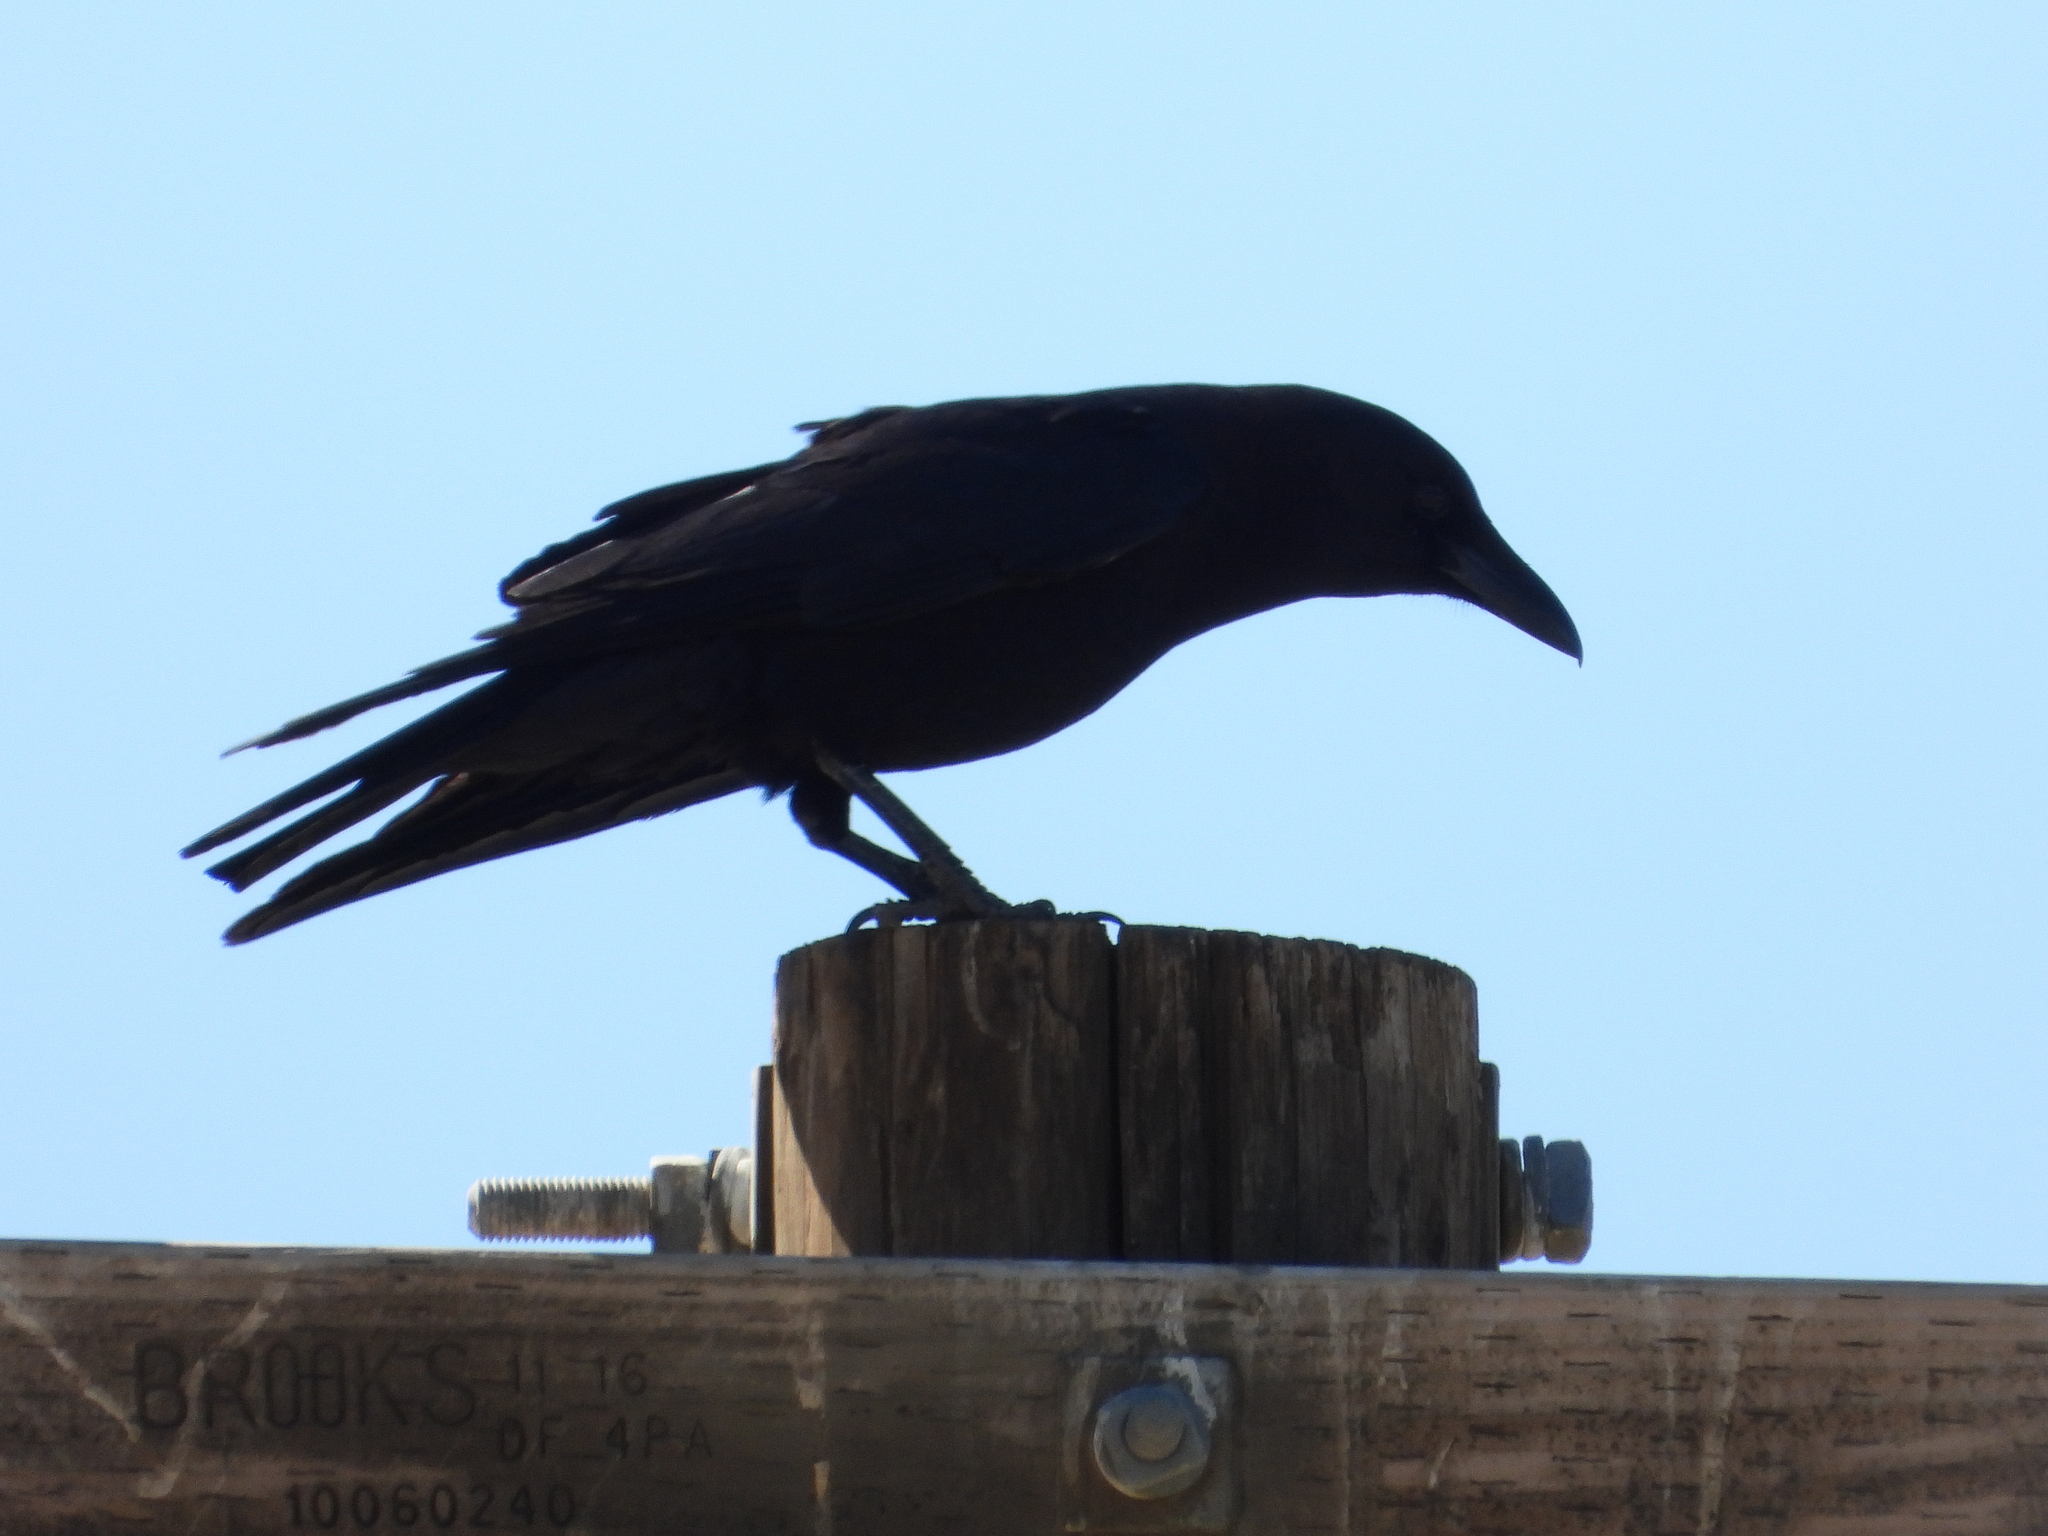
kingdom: Animalia
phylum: Chordata
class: Aves
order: Passeriformes
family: Corvidae
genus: Corvus
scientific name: Corvus brachyrhynchos
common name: American crow
